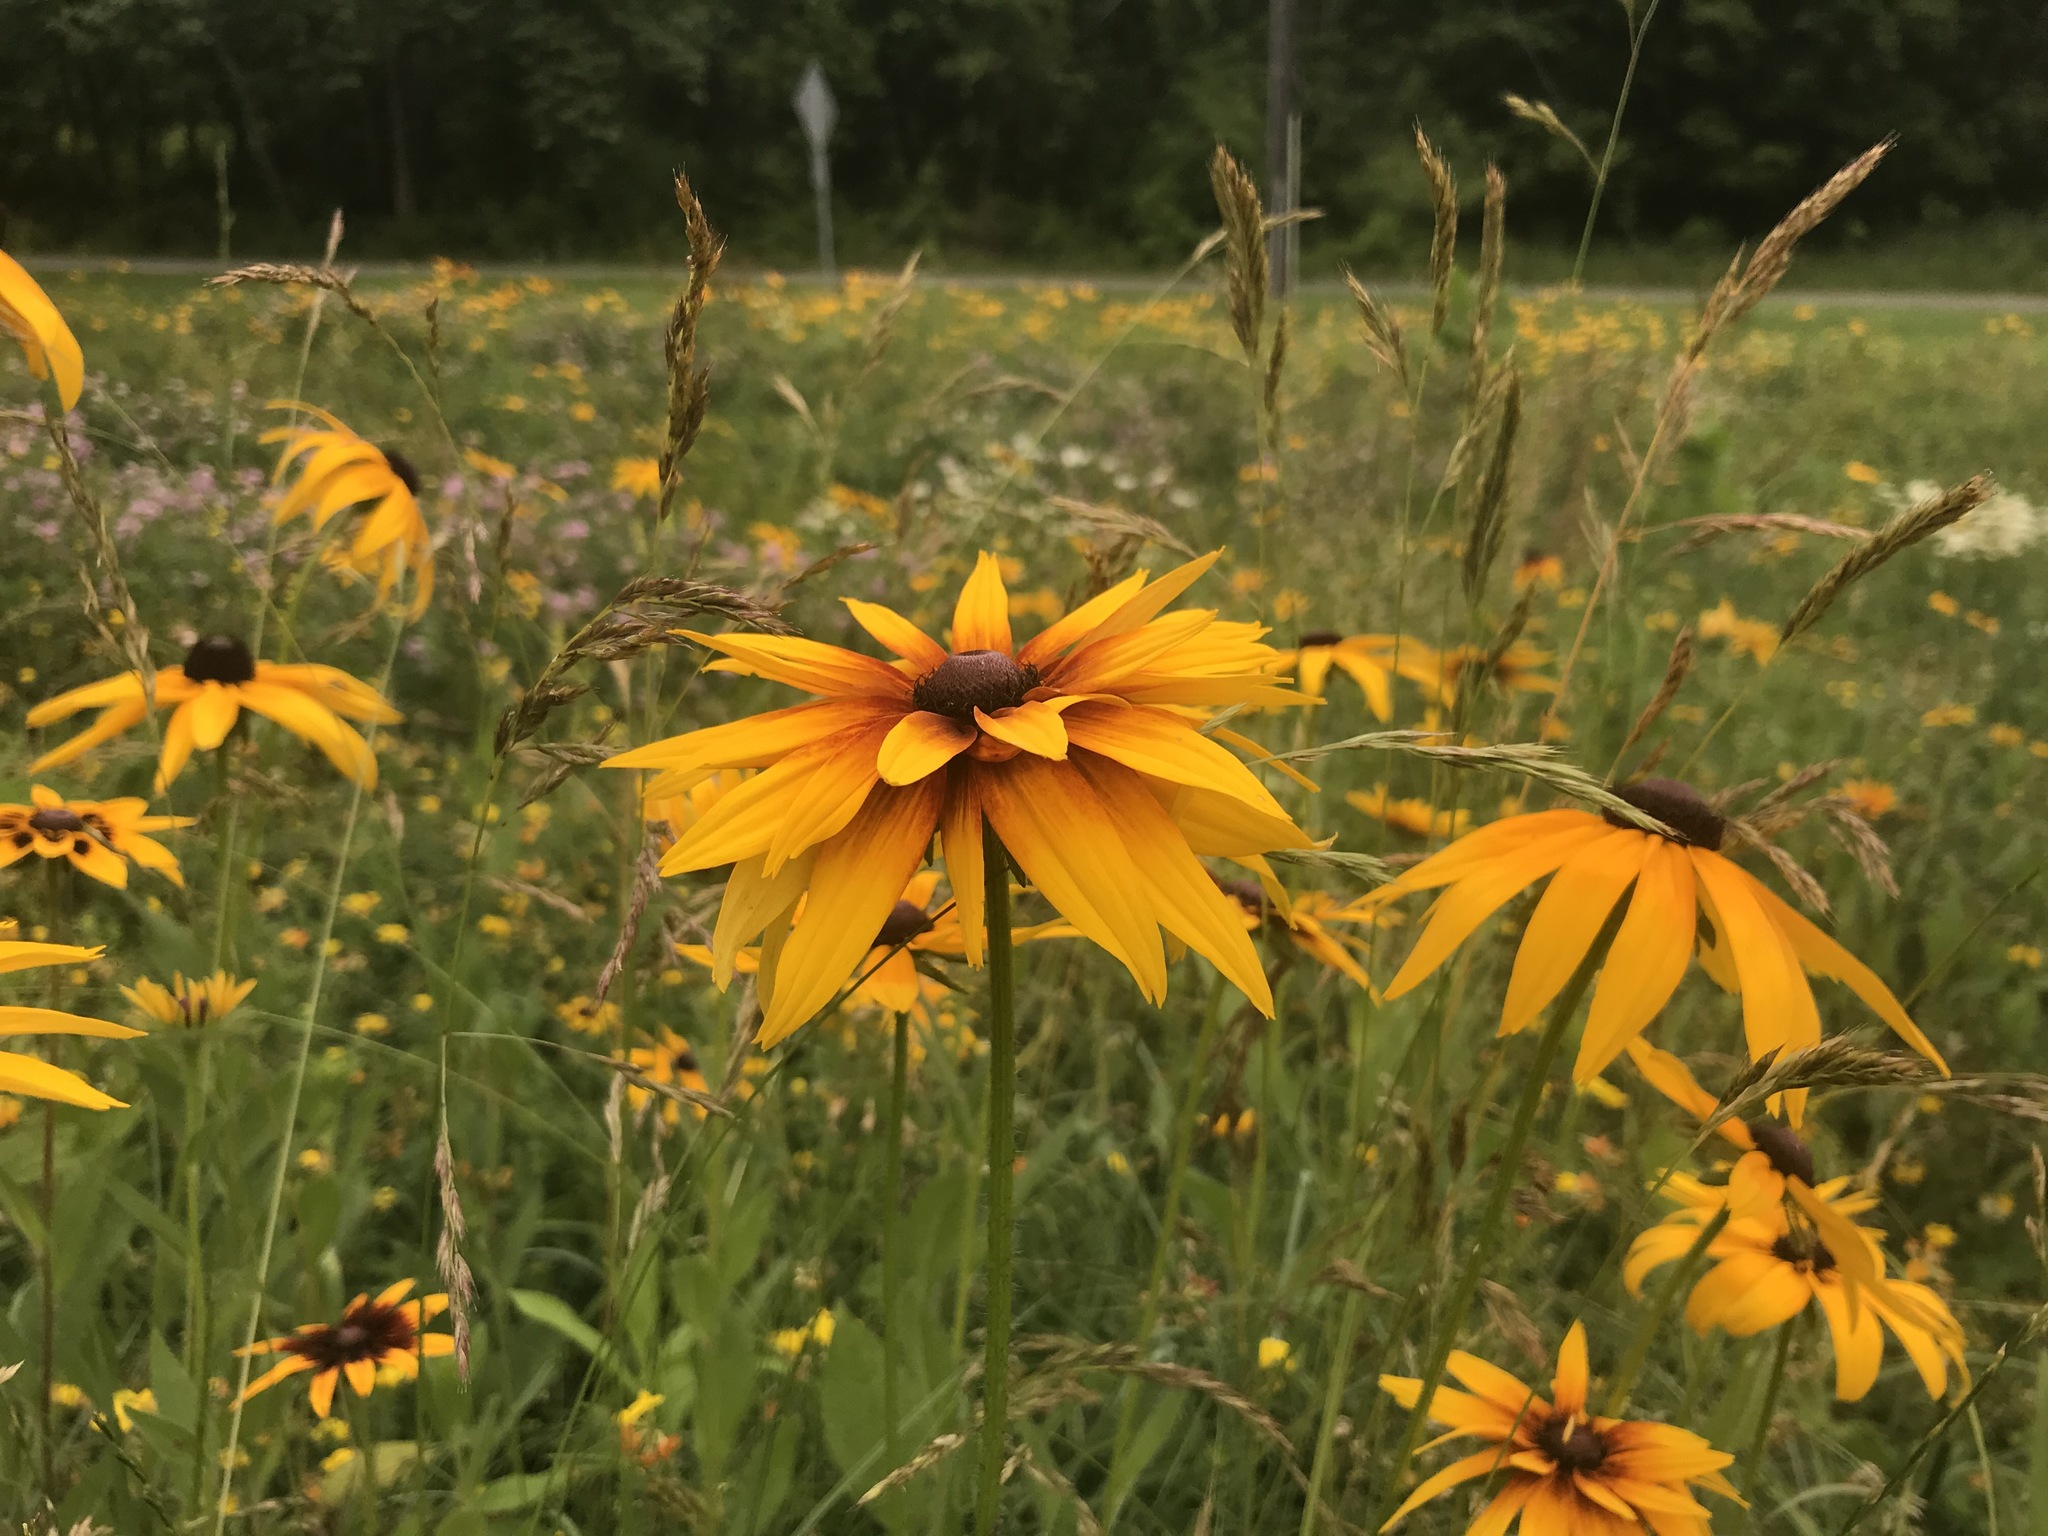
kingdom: Plantae
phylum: Tracheophyta
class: Magnoliopsida
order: Asterales
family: Asteraceae
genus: Rudbeckia
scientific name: Rudbeckia hirta
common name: Black-eyed-susan
